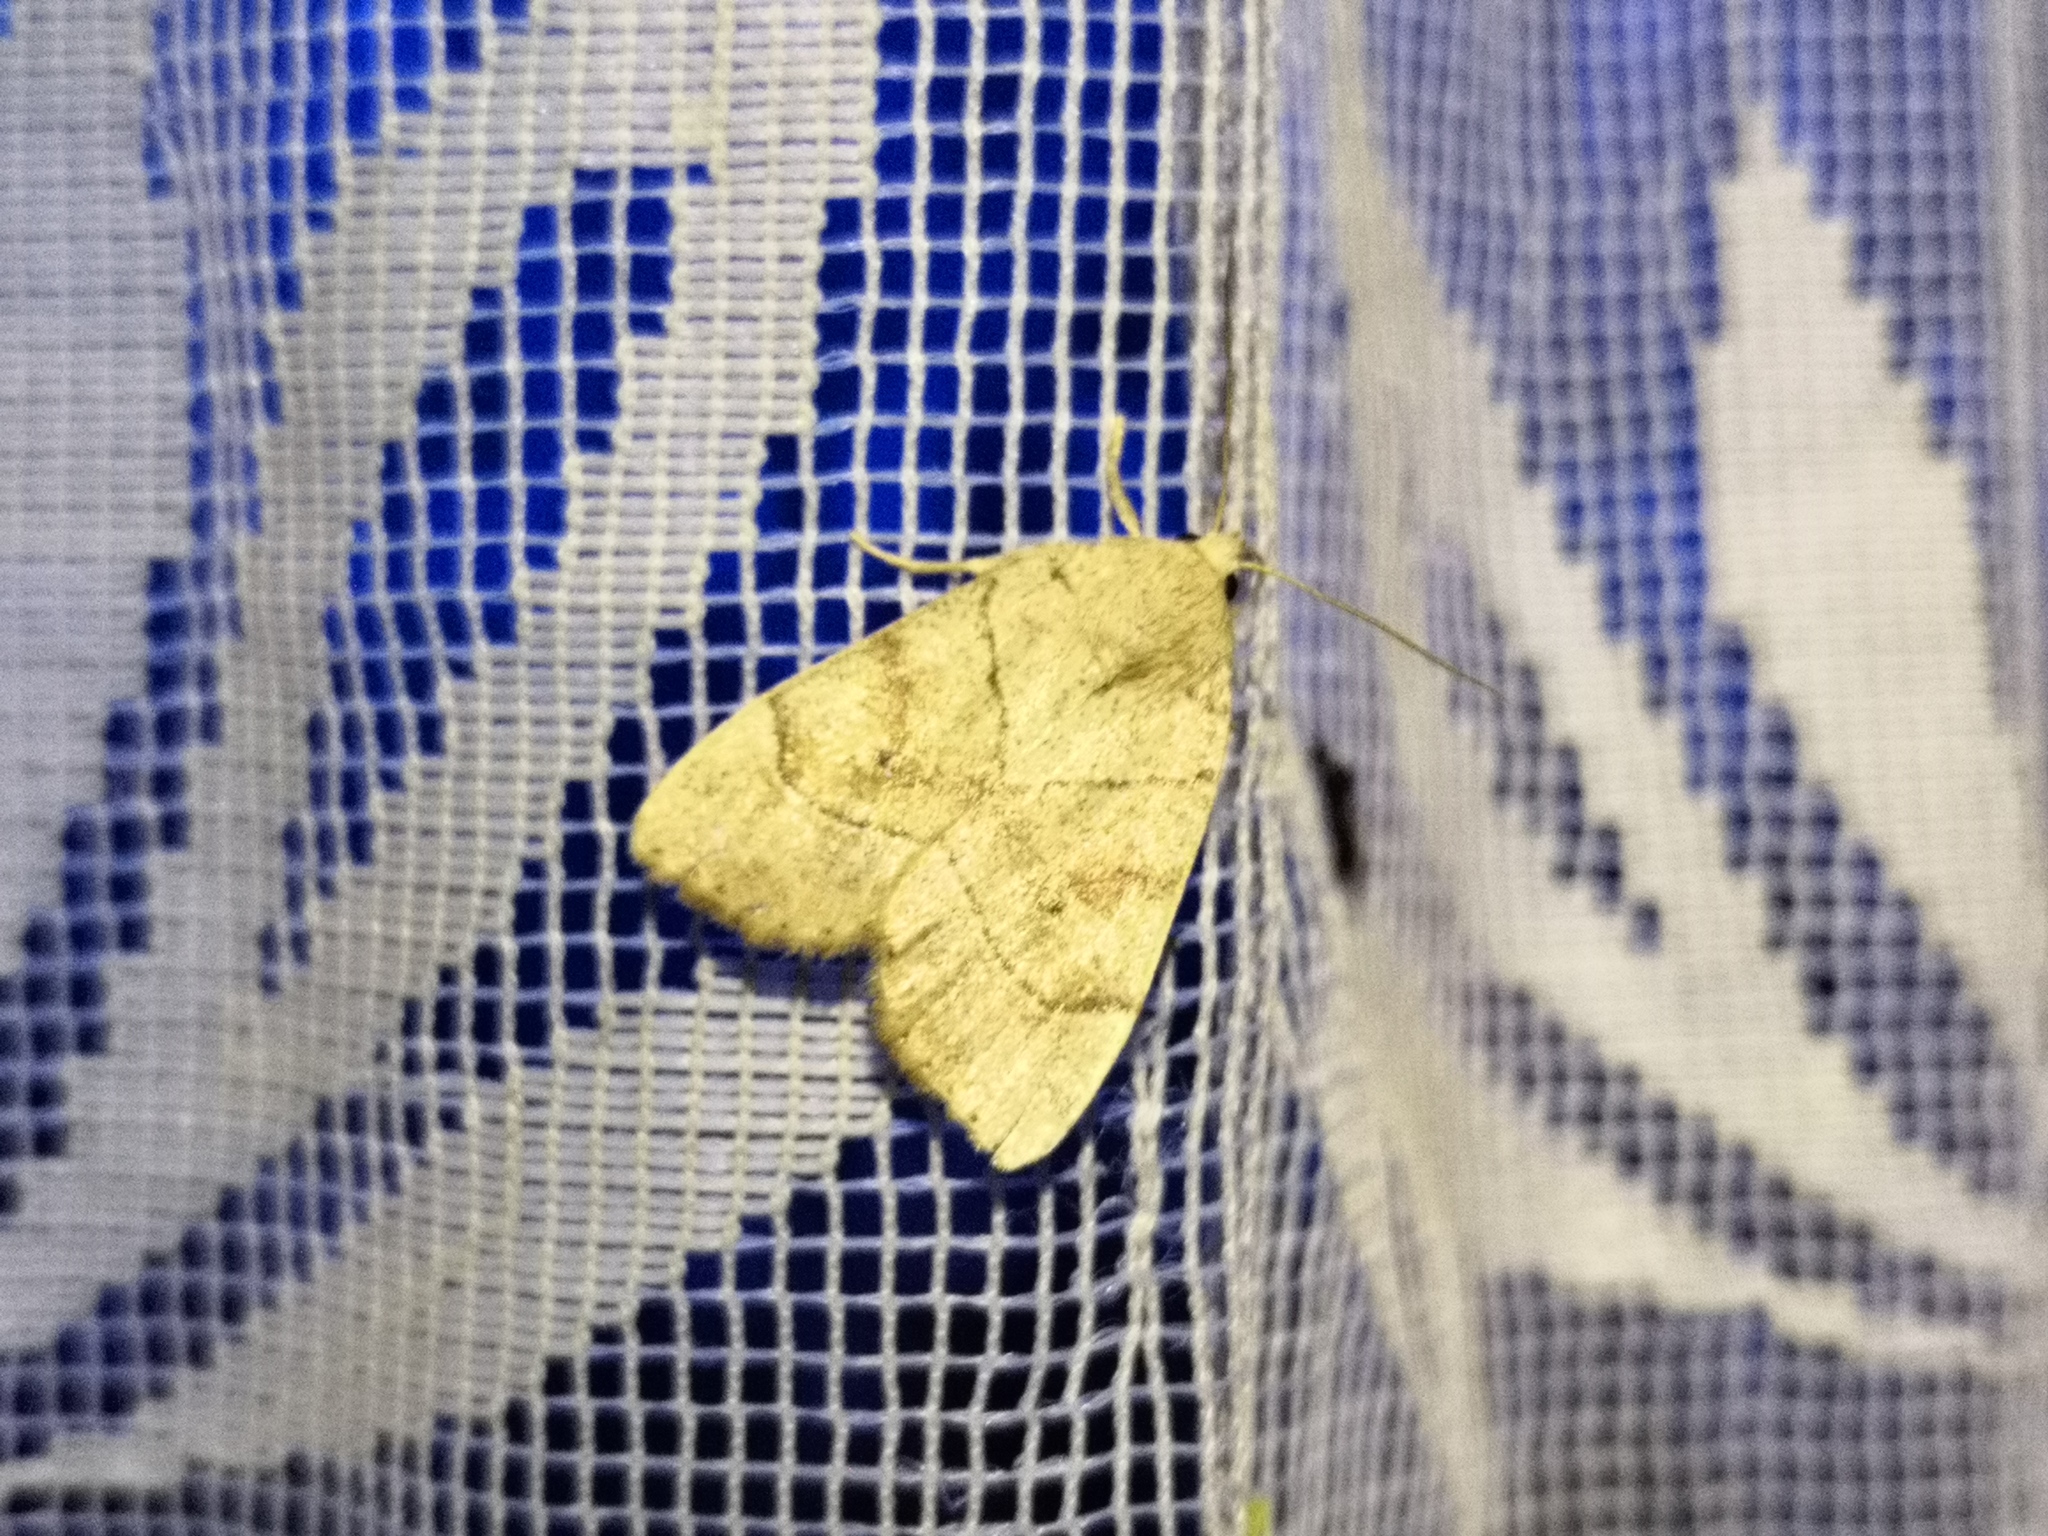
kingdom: Animalia
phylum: Arthropoda
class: Insecta
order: Lepidoptera
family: Noctuidae
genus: Cosmia
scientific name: Cosmia trapezina
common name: Dun-bar
